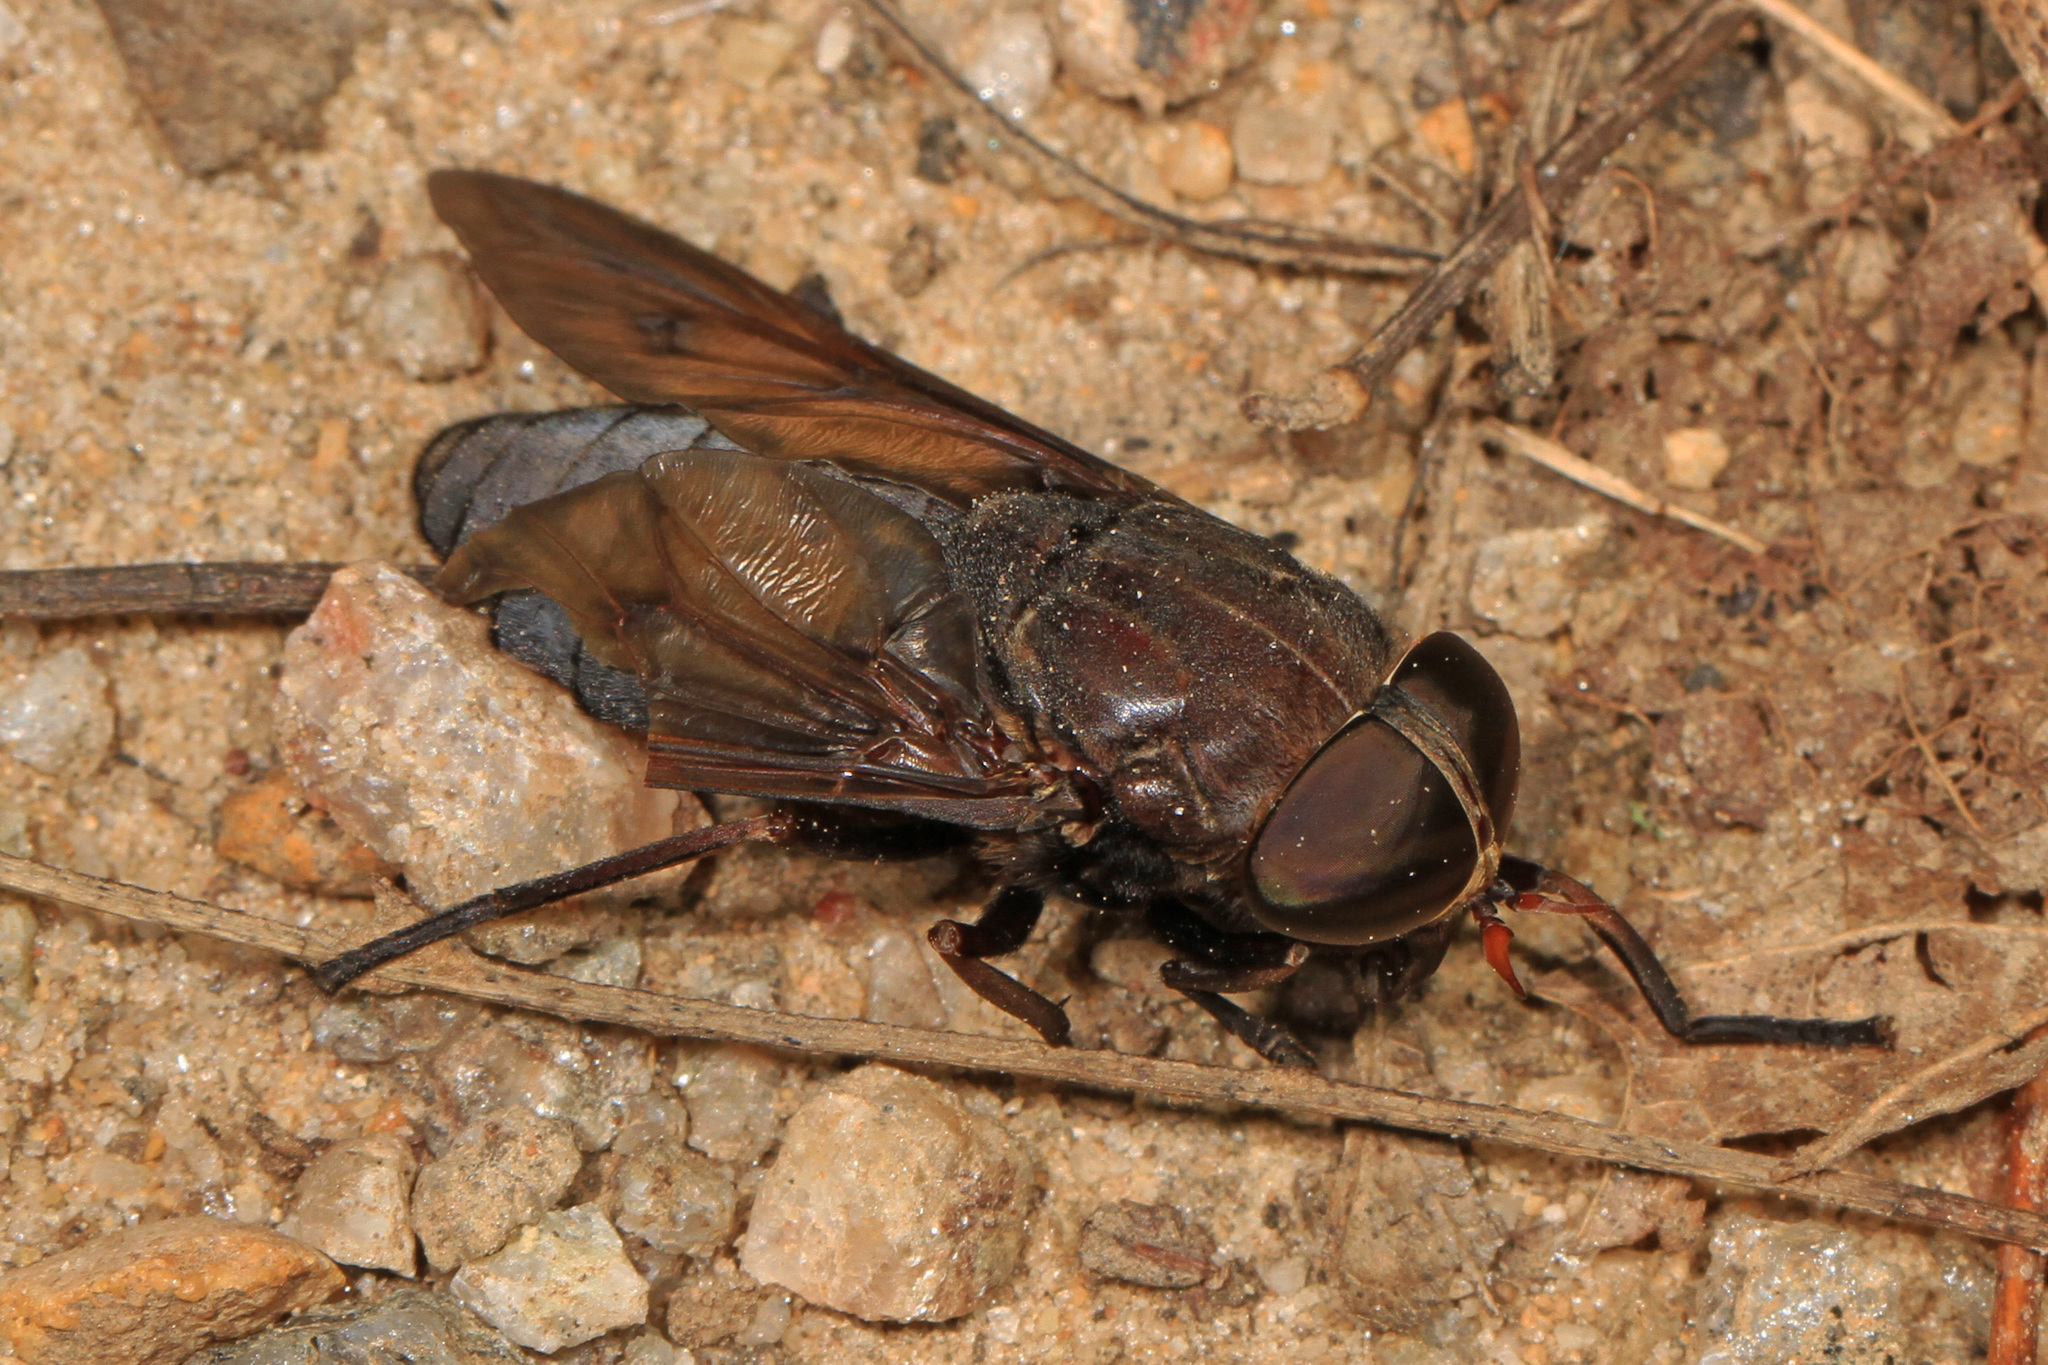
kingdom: Animalia
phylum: Arthropoda
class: Insecta
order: Diptera
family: Tabanidae
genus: Tabanus
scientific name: Tabanus proximus
